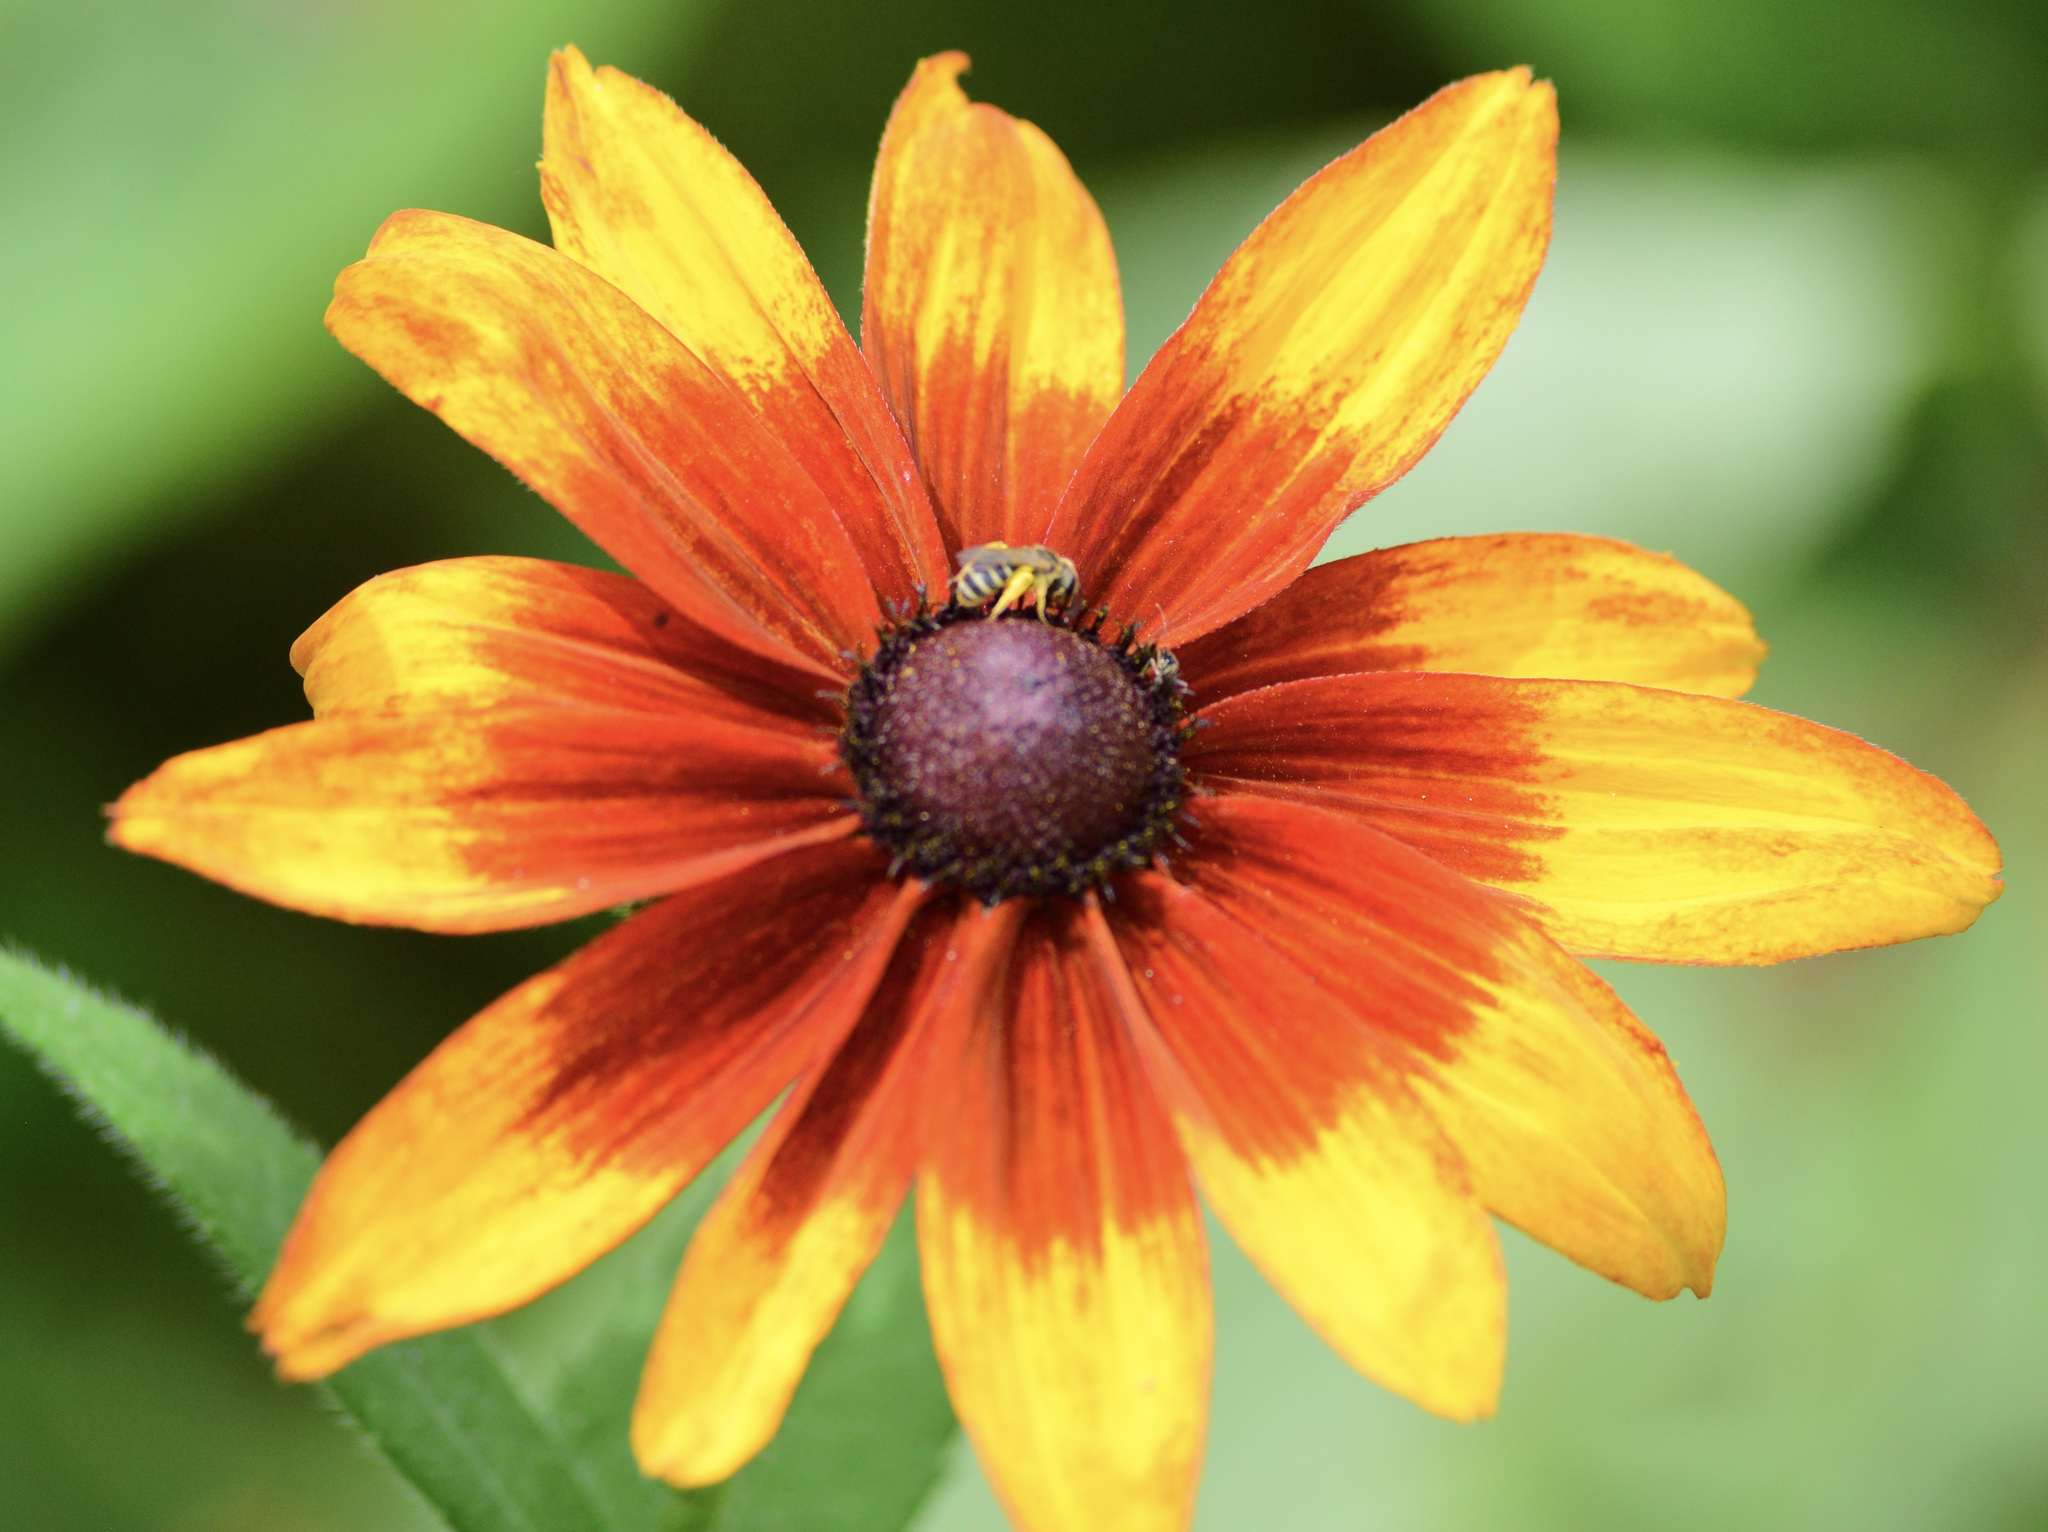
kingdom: Animalia
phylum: Arthropoda
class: Insecta
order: Hymenoptera
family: Halictidae
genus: Halictus
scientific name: Halictus ligatus
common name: Ligated furrow bee
